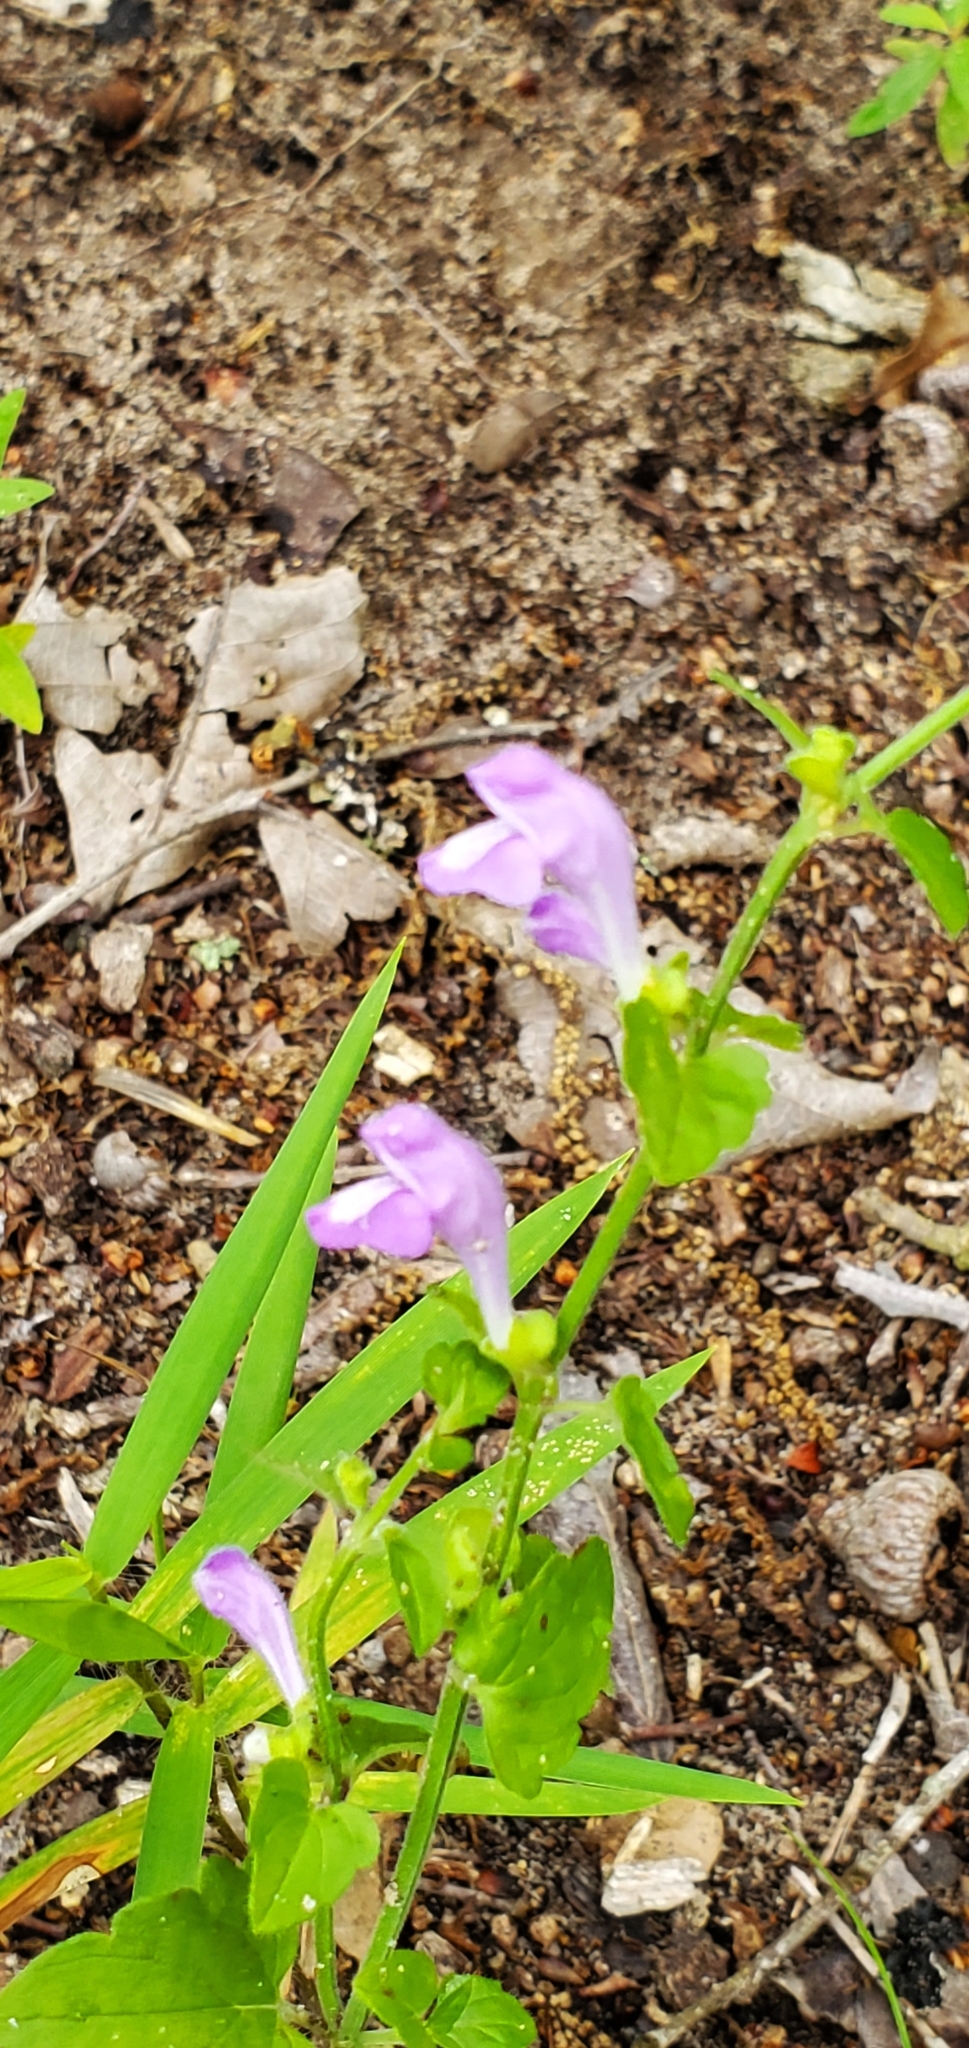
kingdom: Plantae
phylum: Tracheophyta
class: Magnoliopsida
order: Lamiales
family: Lamiaceae
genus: Scutellaria
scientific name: Scutellaria cardiophylla
